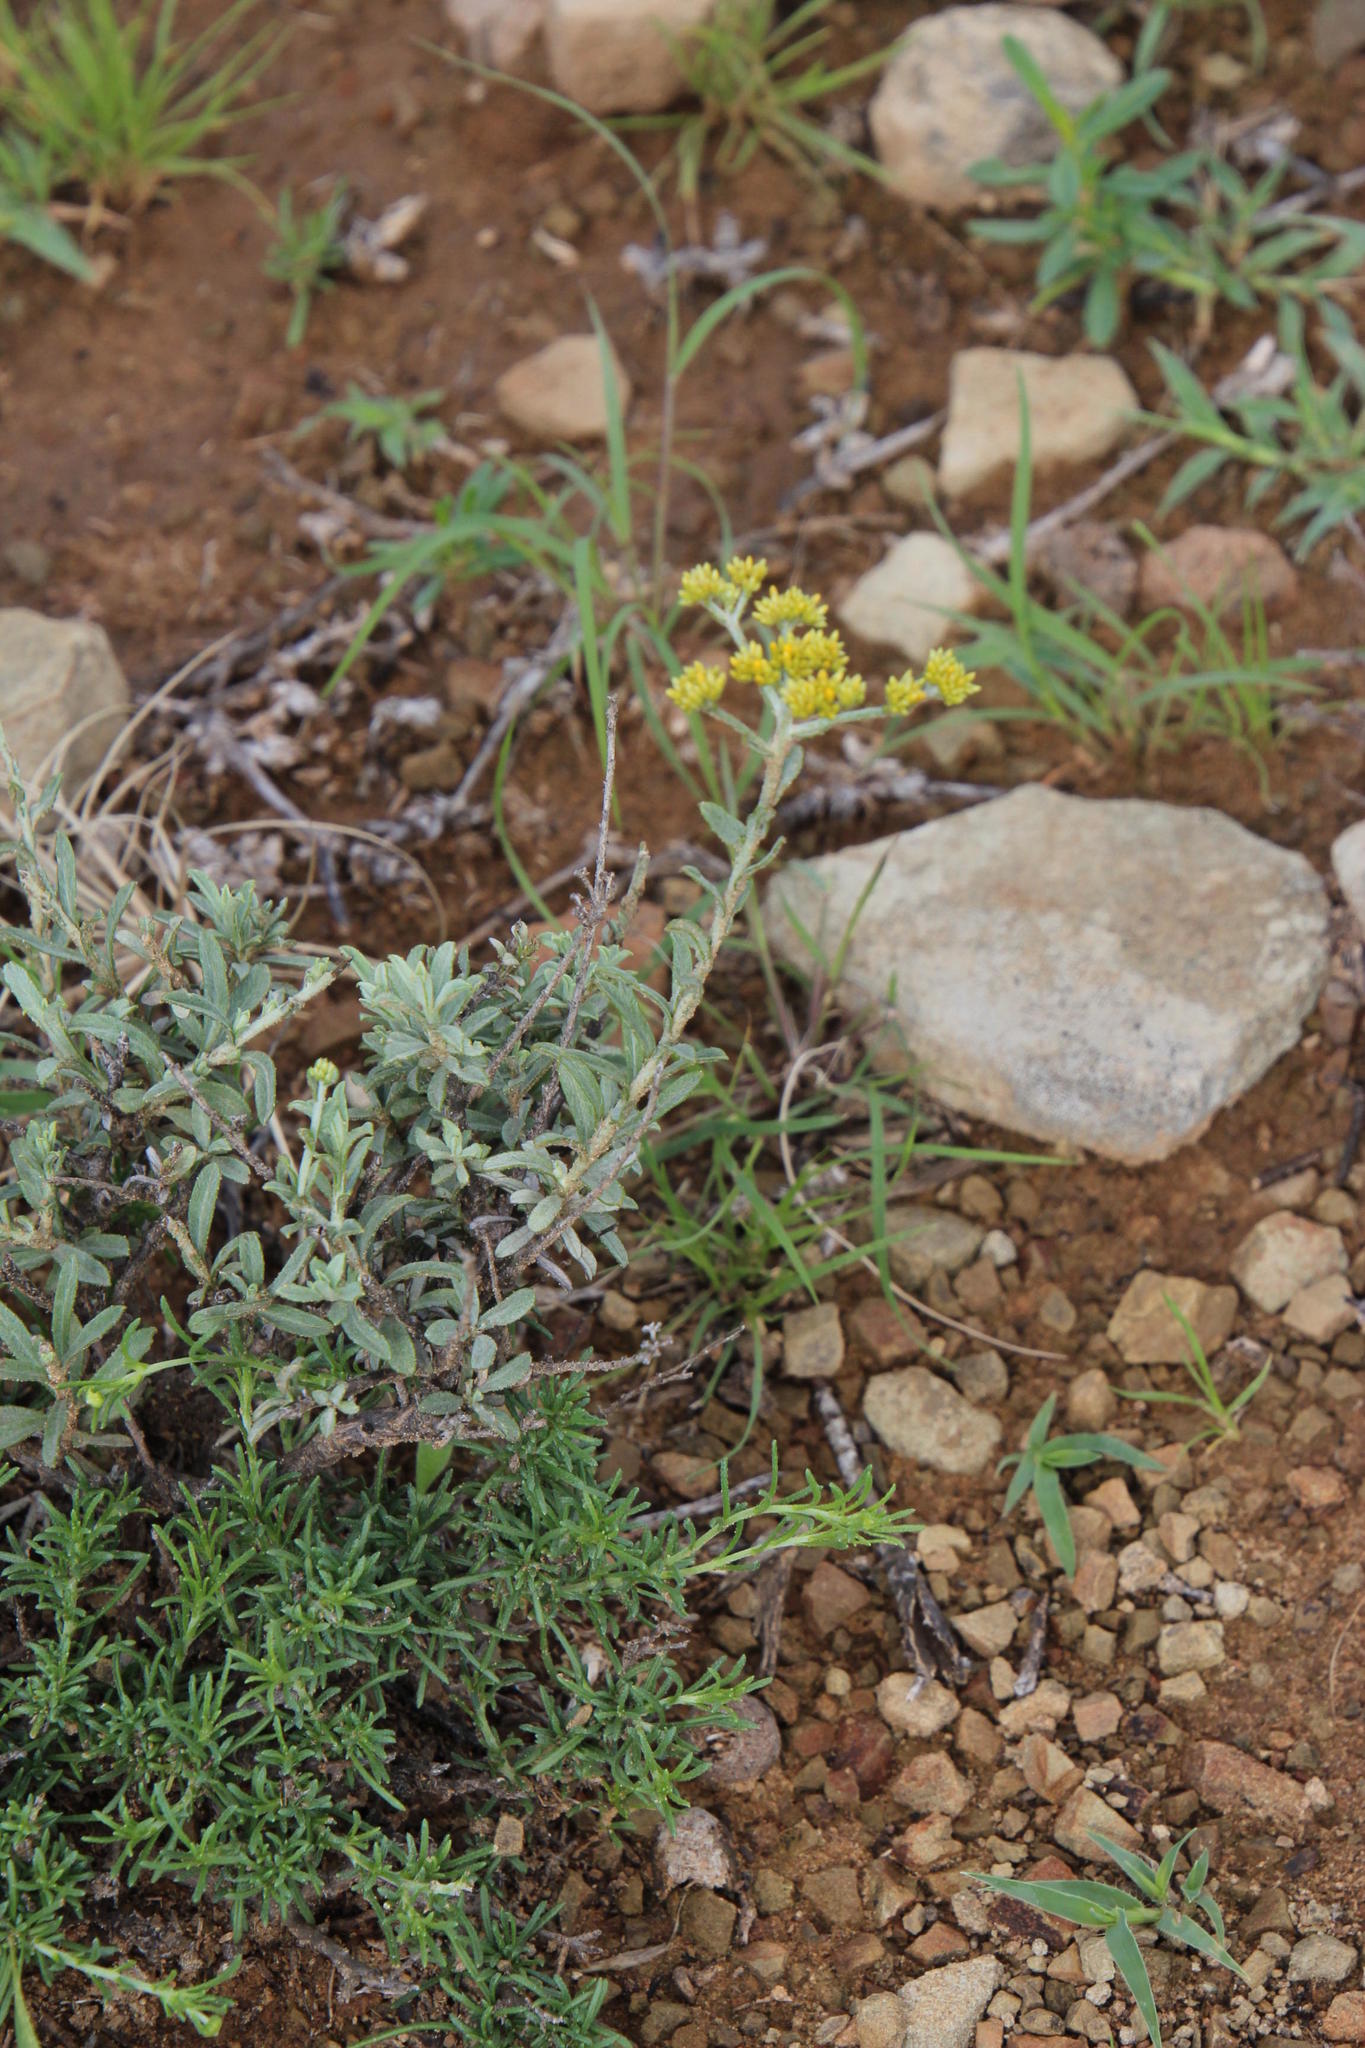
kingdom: Plantae
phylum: Tracheophyta
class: Magnoliopsida
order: Asterales
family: Asteraceae
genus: Helichrysum
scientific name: Helichrysum rutilans
